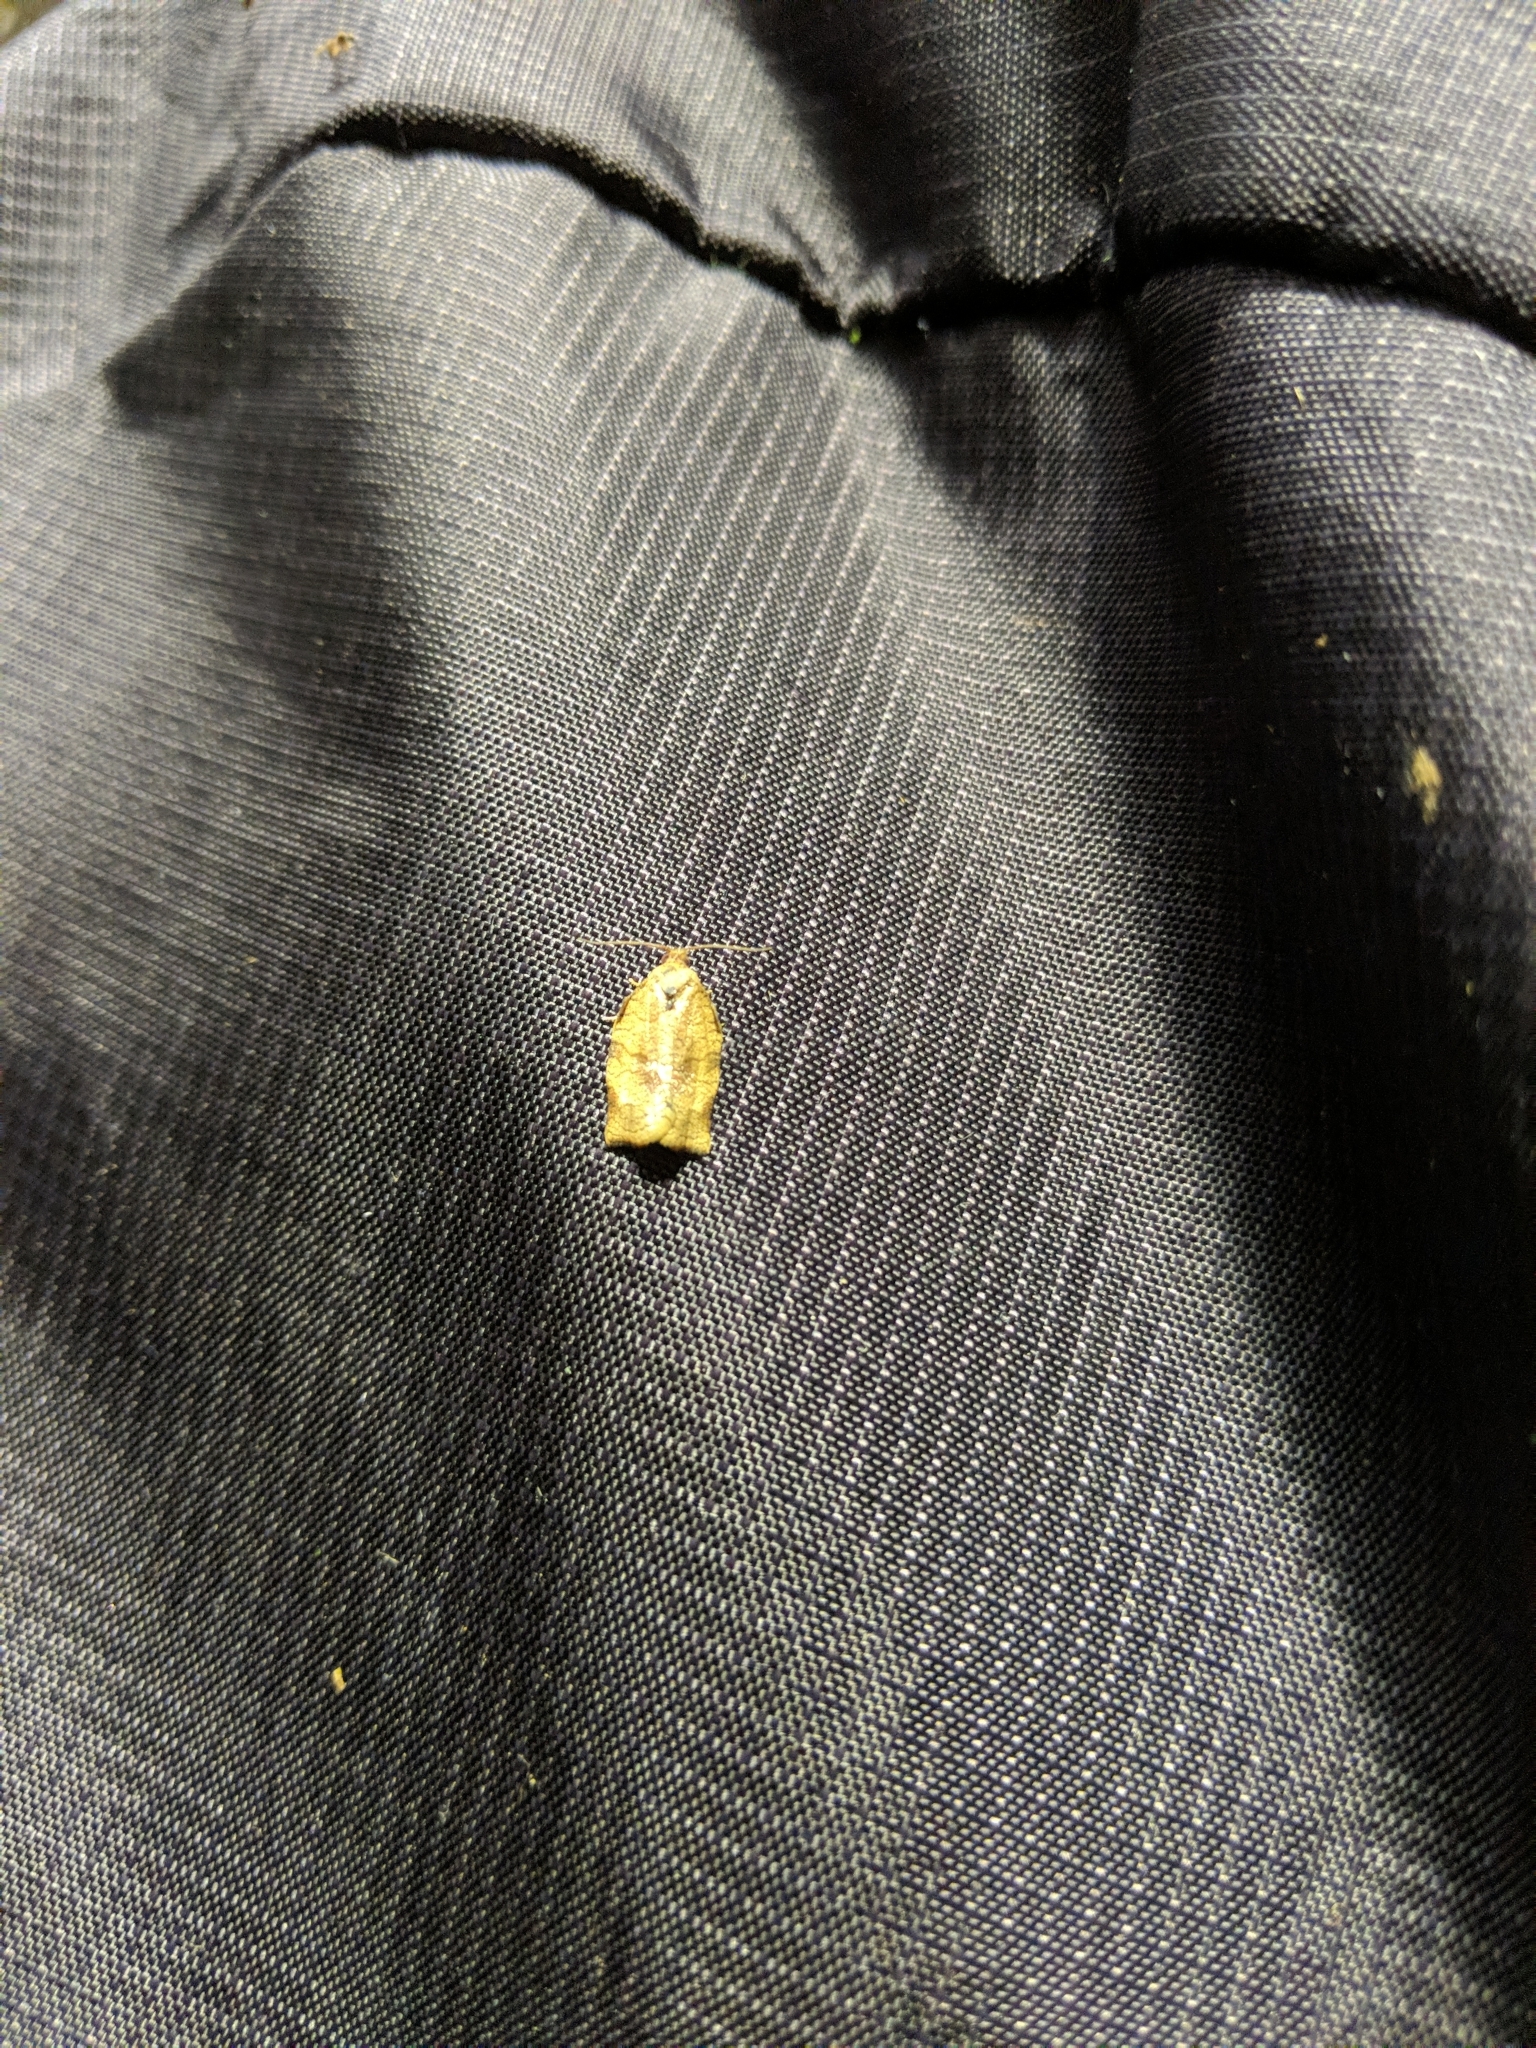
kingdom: Animalia
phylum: Arthropoda
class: Insecta
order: Lepidoptera
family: Tortricidae
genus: Choristoneura
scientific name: Choristoneura rosaceana
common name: Oblique-banded leafroller moth
